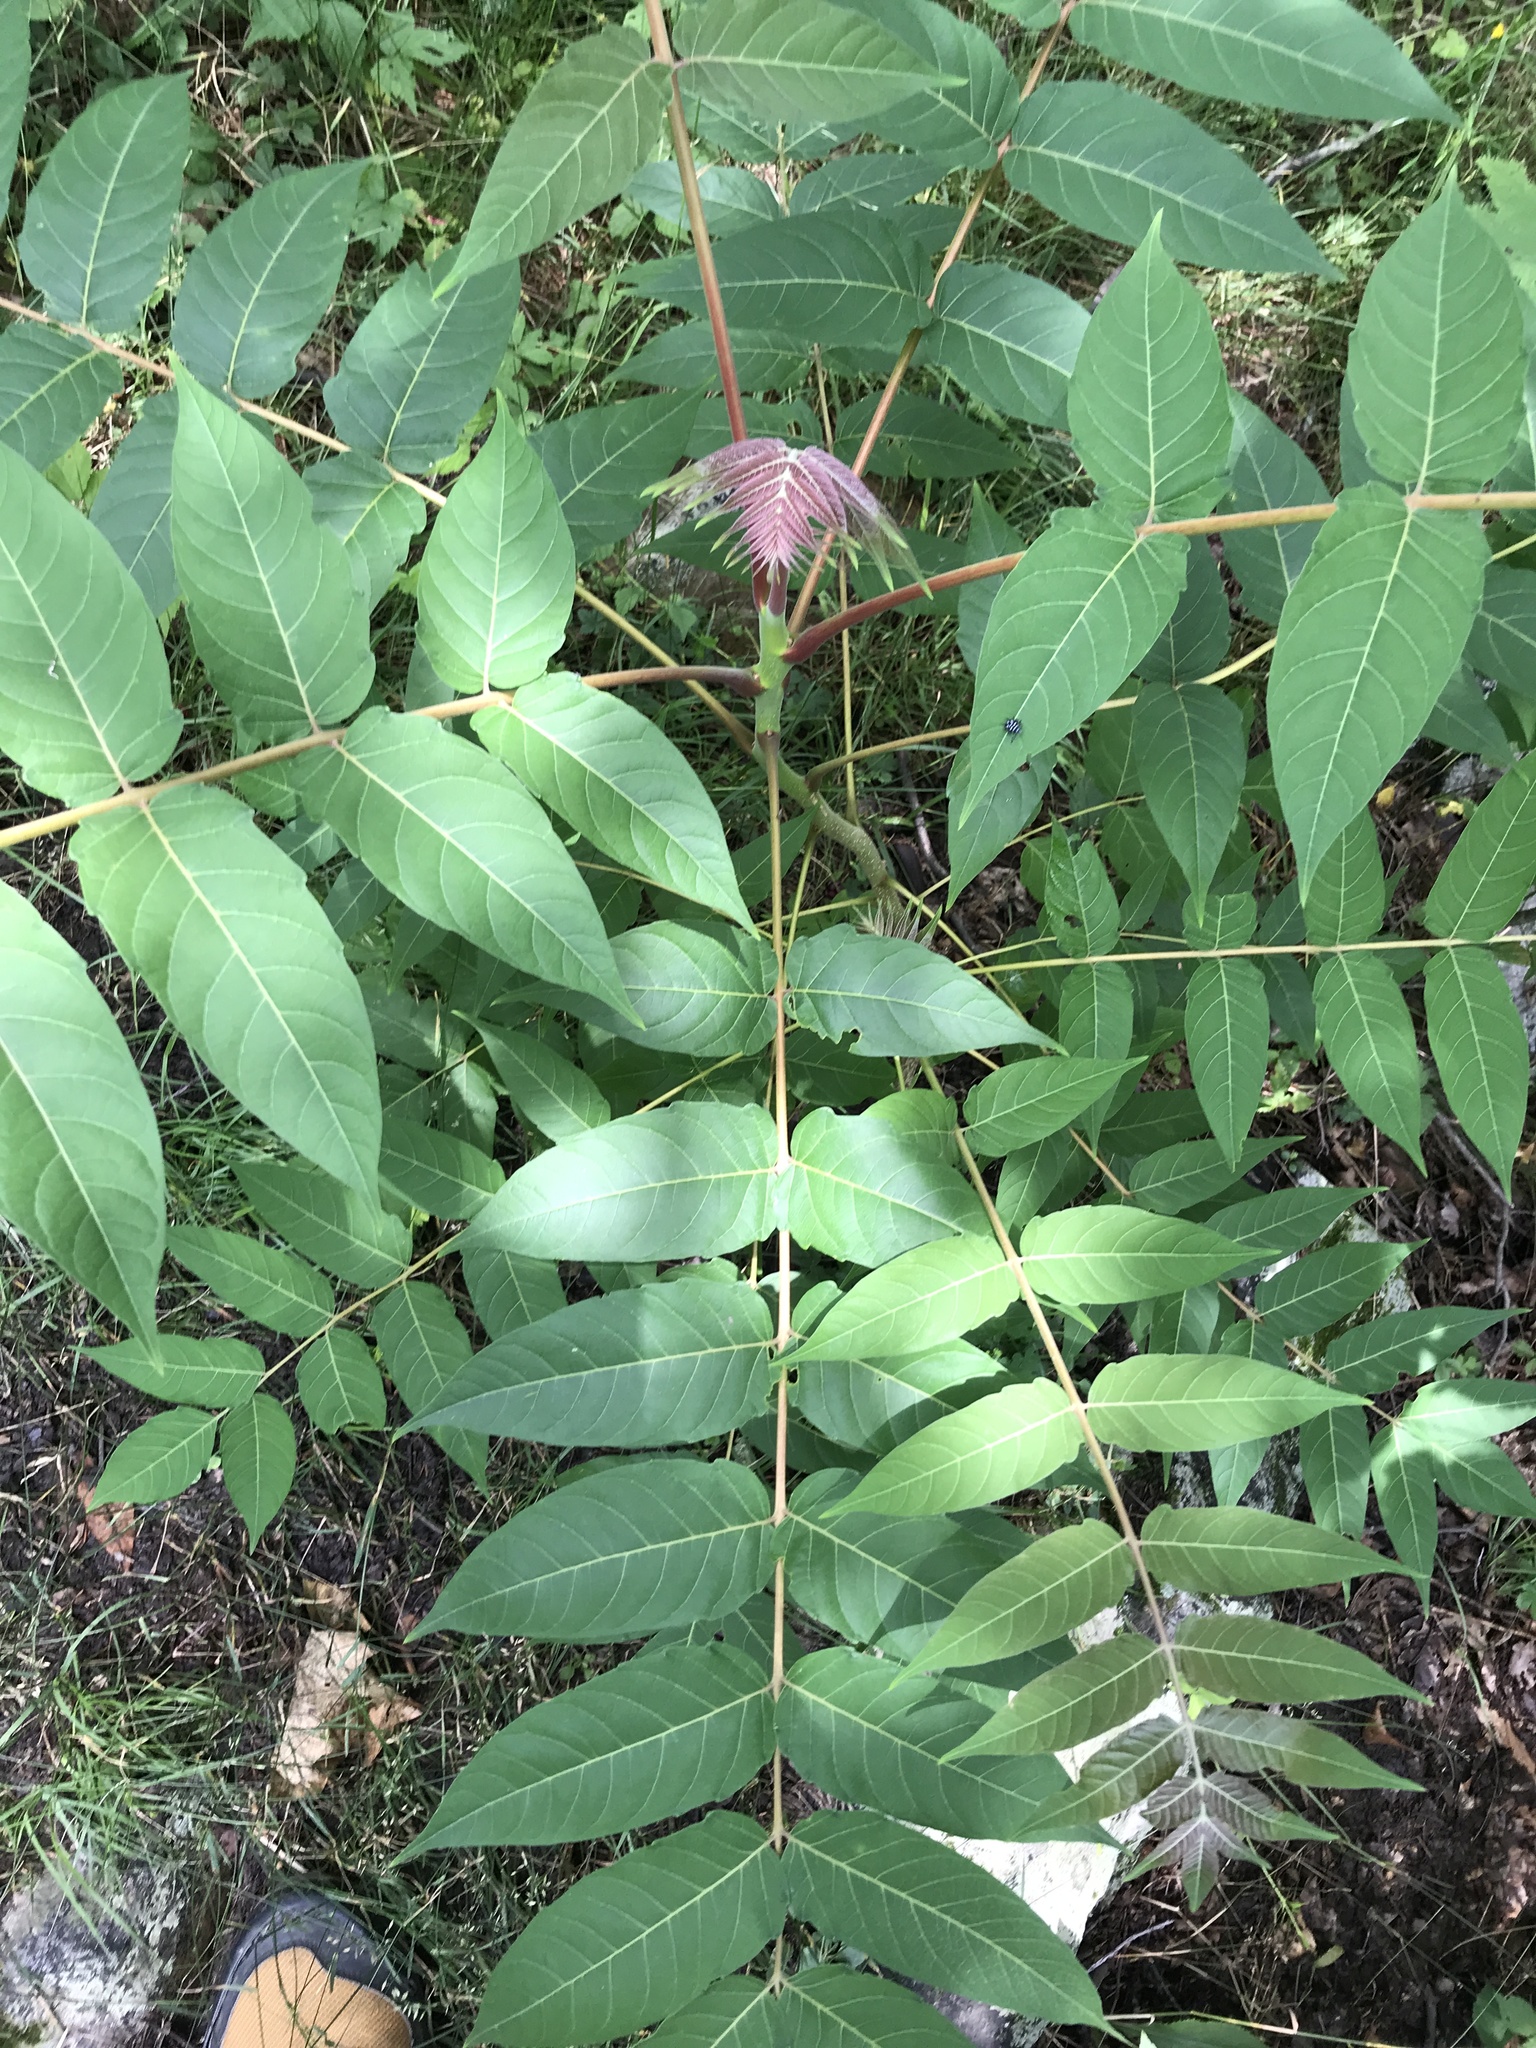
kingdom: Plantae
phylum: Tracheophyta
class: Magnoliopsida
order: Sapindales
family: Simaroubaceae
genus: Ailanthus
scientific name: Ailanthus altissima
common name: Tree-of-heaven
